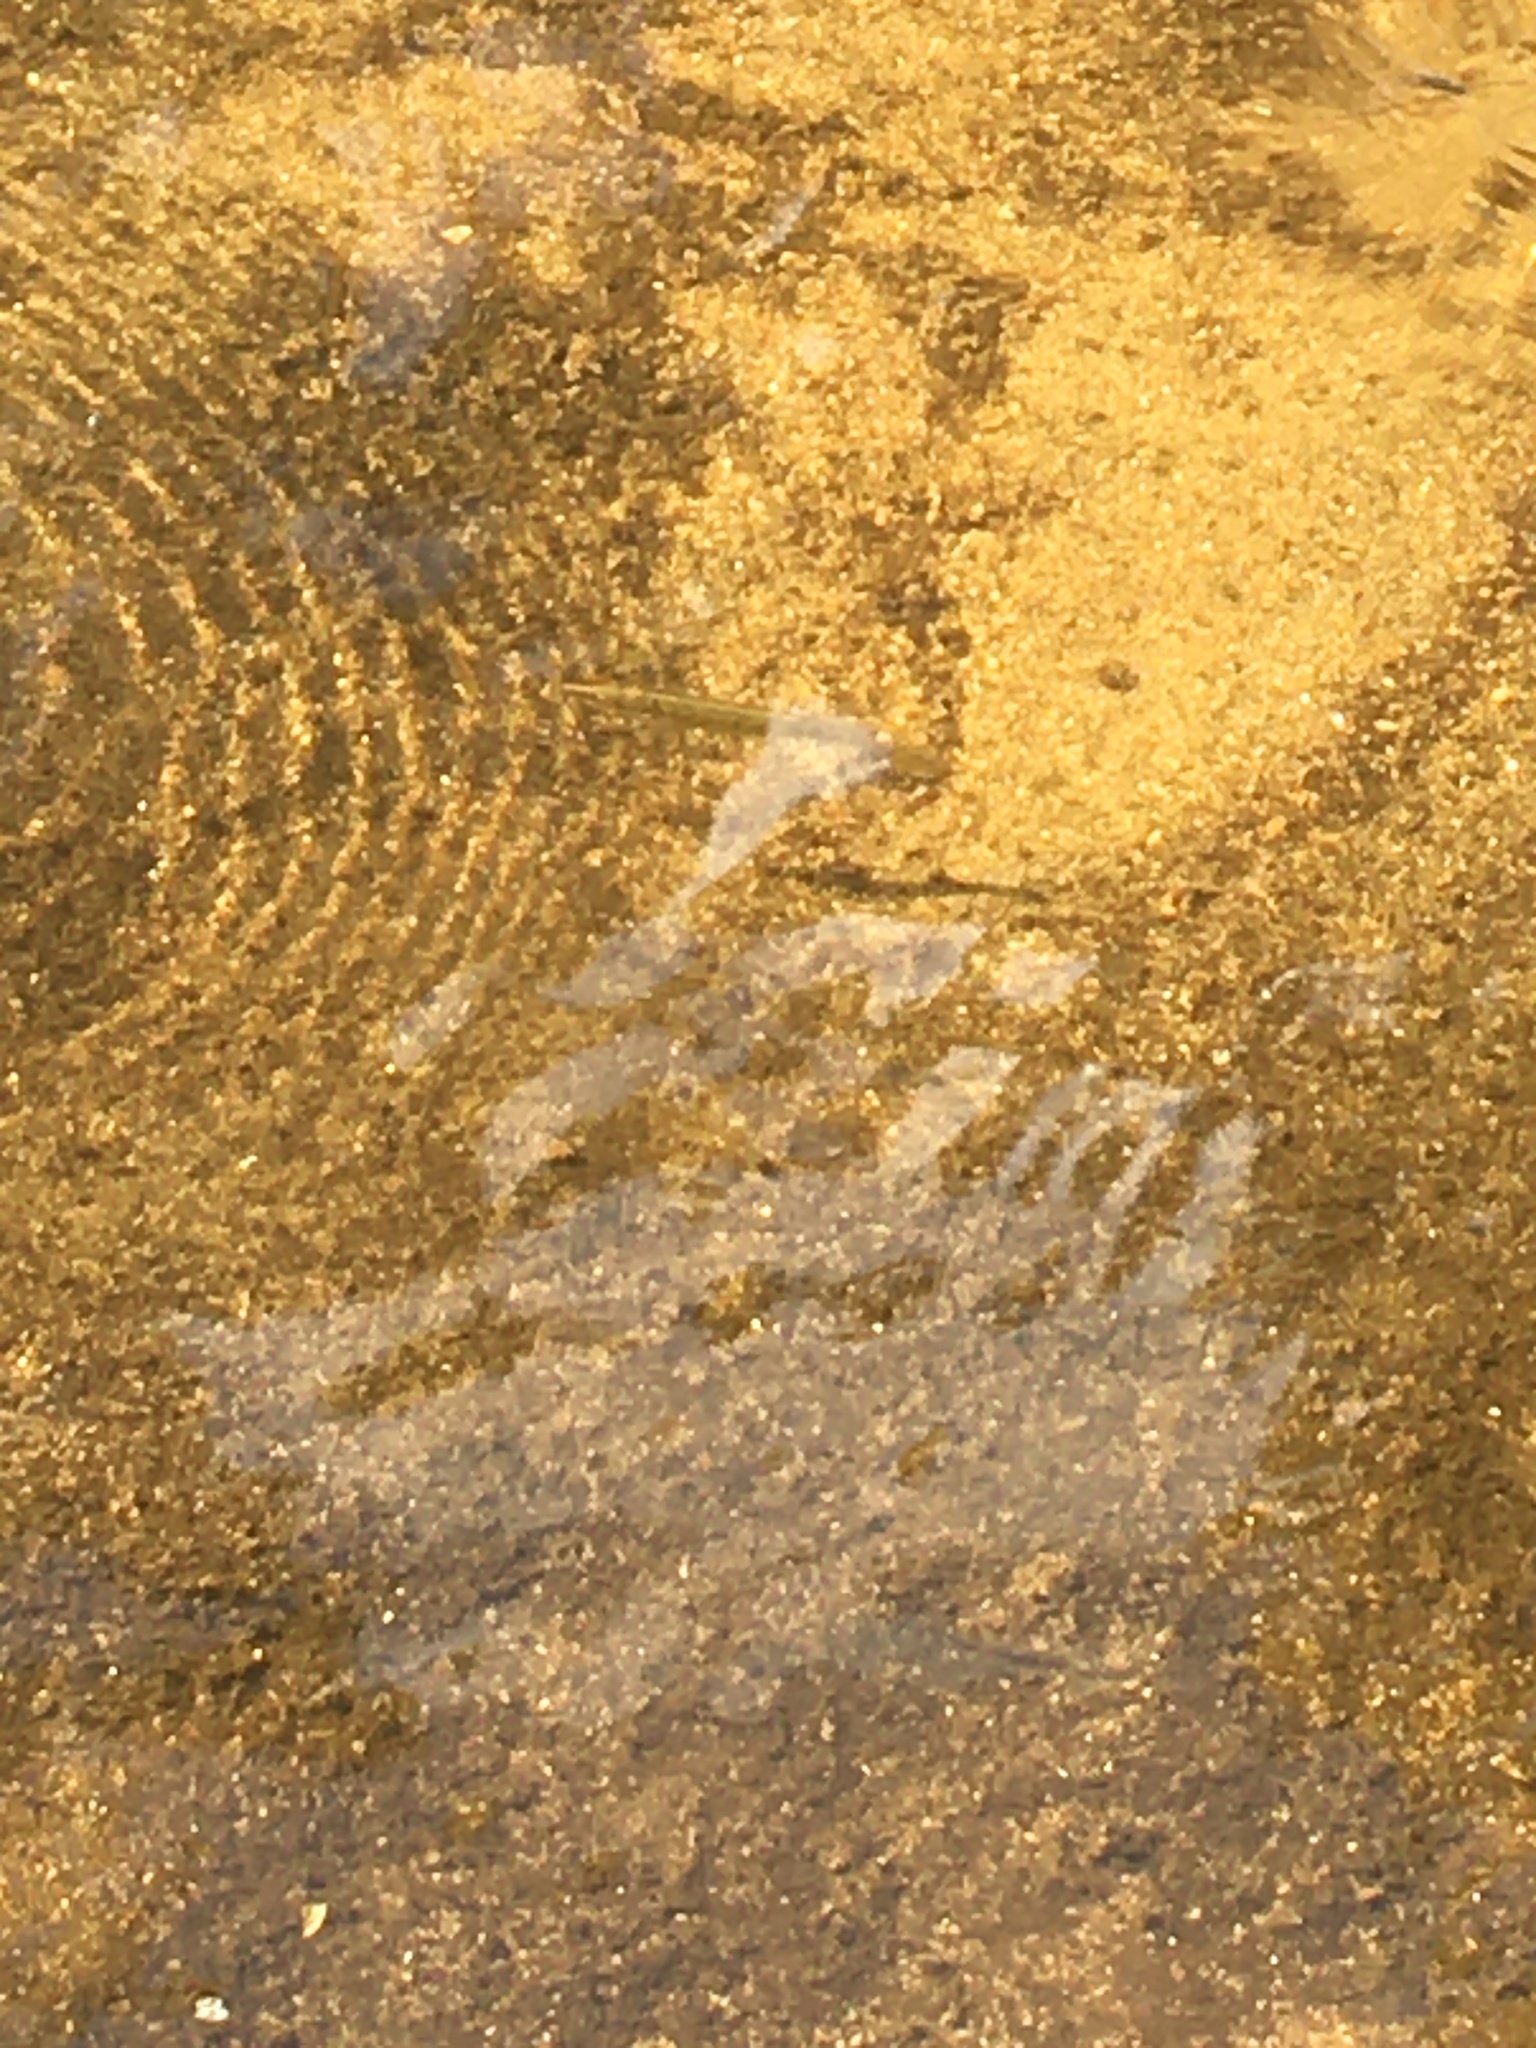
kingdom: Animalia
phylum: Chordata
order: Esociformes
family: Esocidae
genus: Esox
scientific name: Esox
